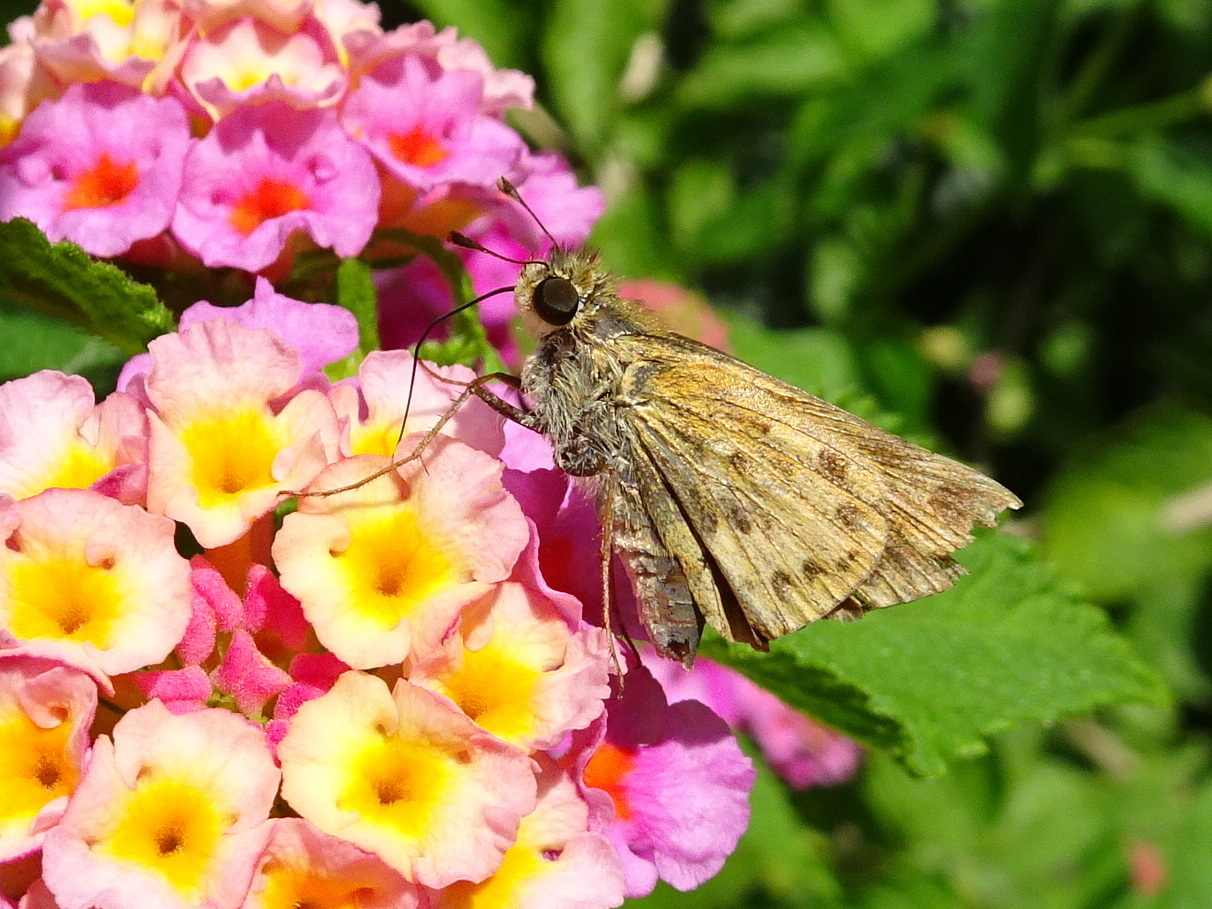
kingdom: Animalia
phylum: Arthropoda
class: Insecta
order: Lepidoptera
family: Hesperiidae
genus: Hylephila
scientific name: Hylephila phyleus
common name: Fiery skipper
